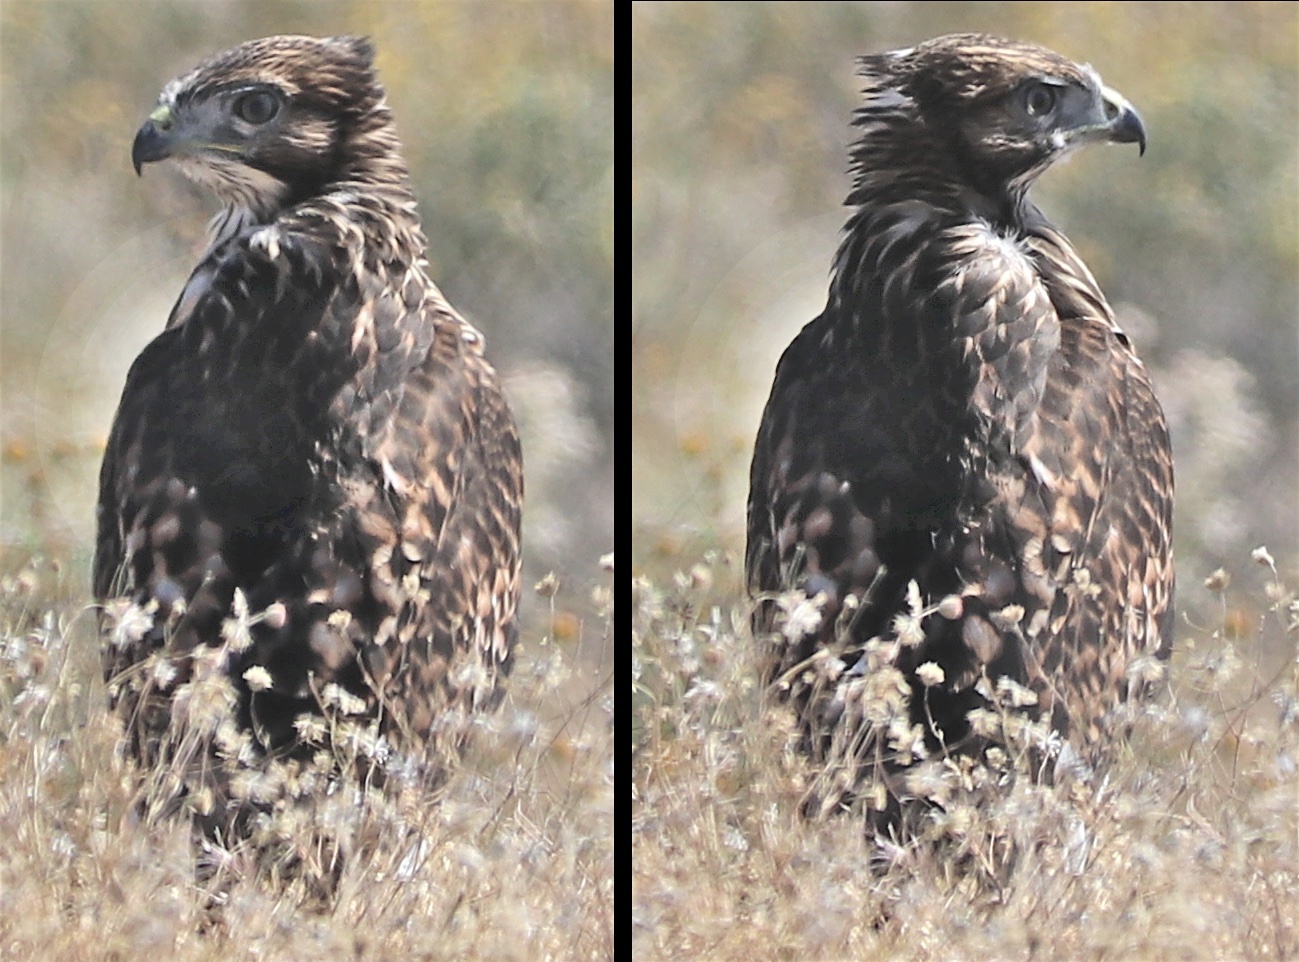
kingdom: Animalia
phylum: Chordata
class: Aves
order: Accipitriformes
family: Accipitridae
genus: Buteo
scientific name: Buteo jamaicensis
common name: Red-tailed hawk
